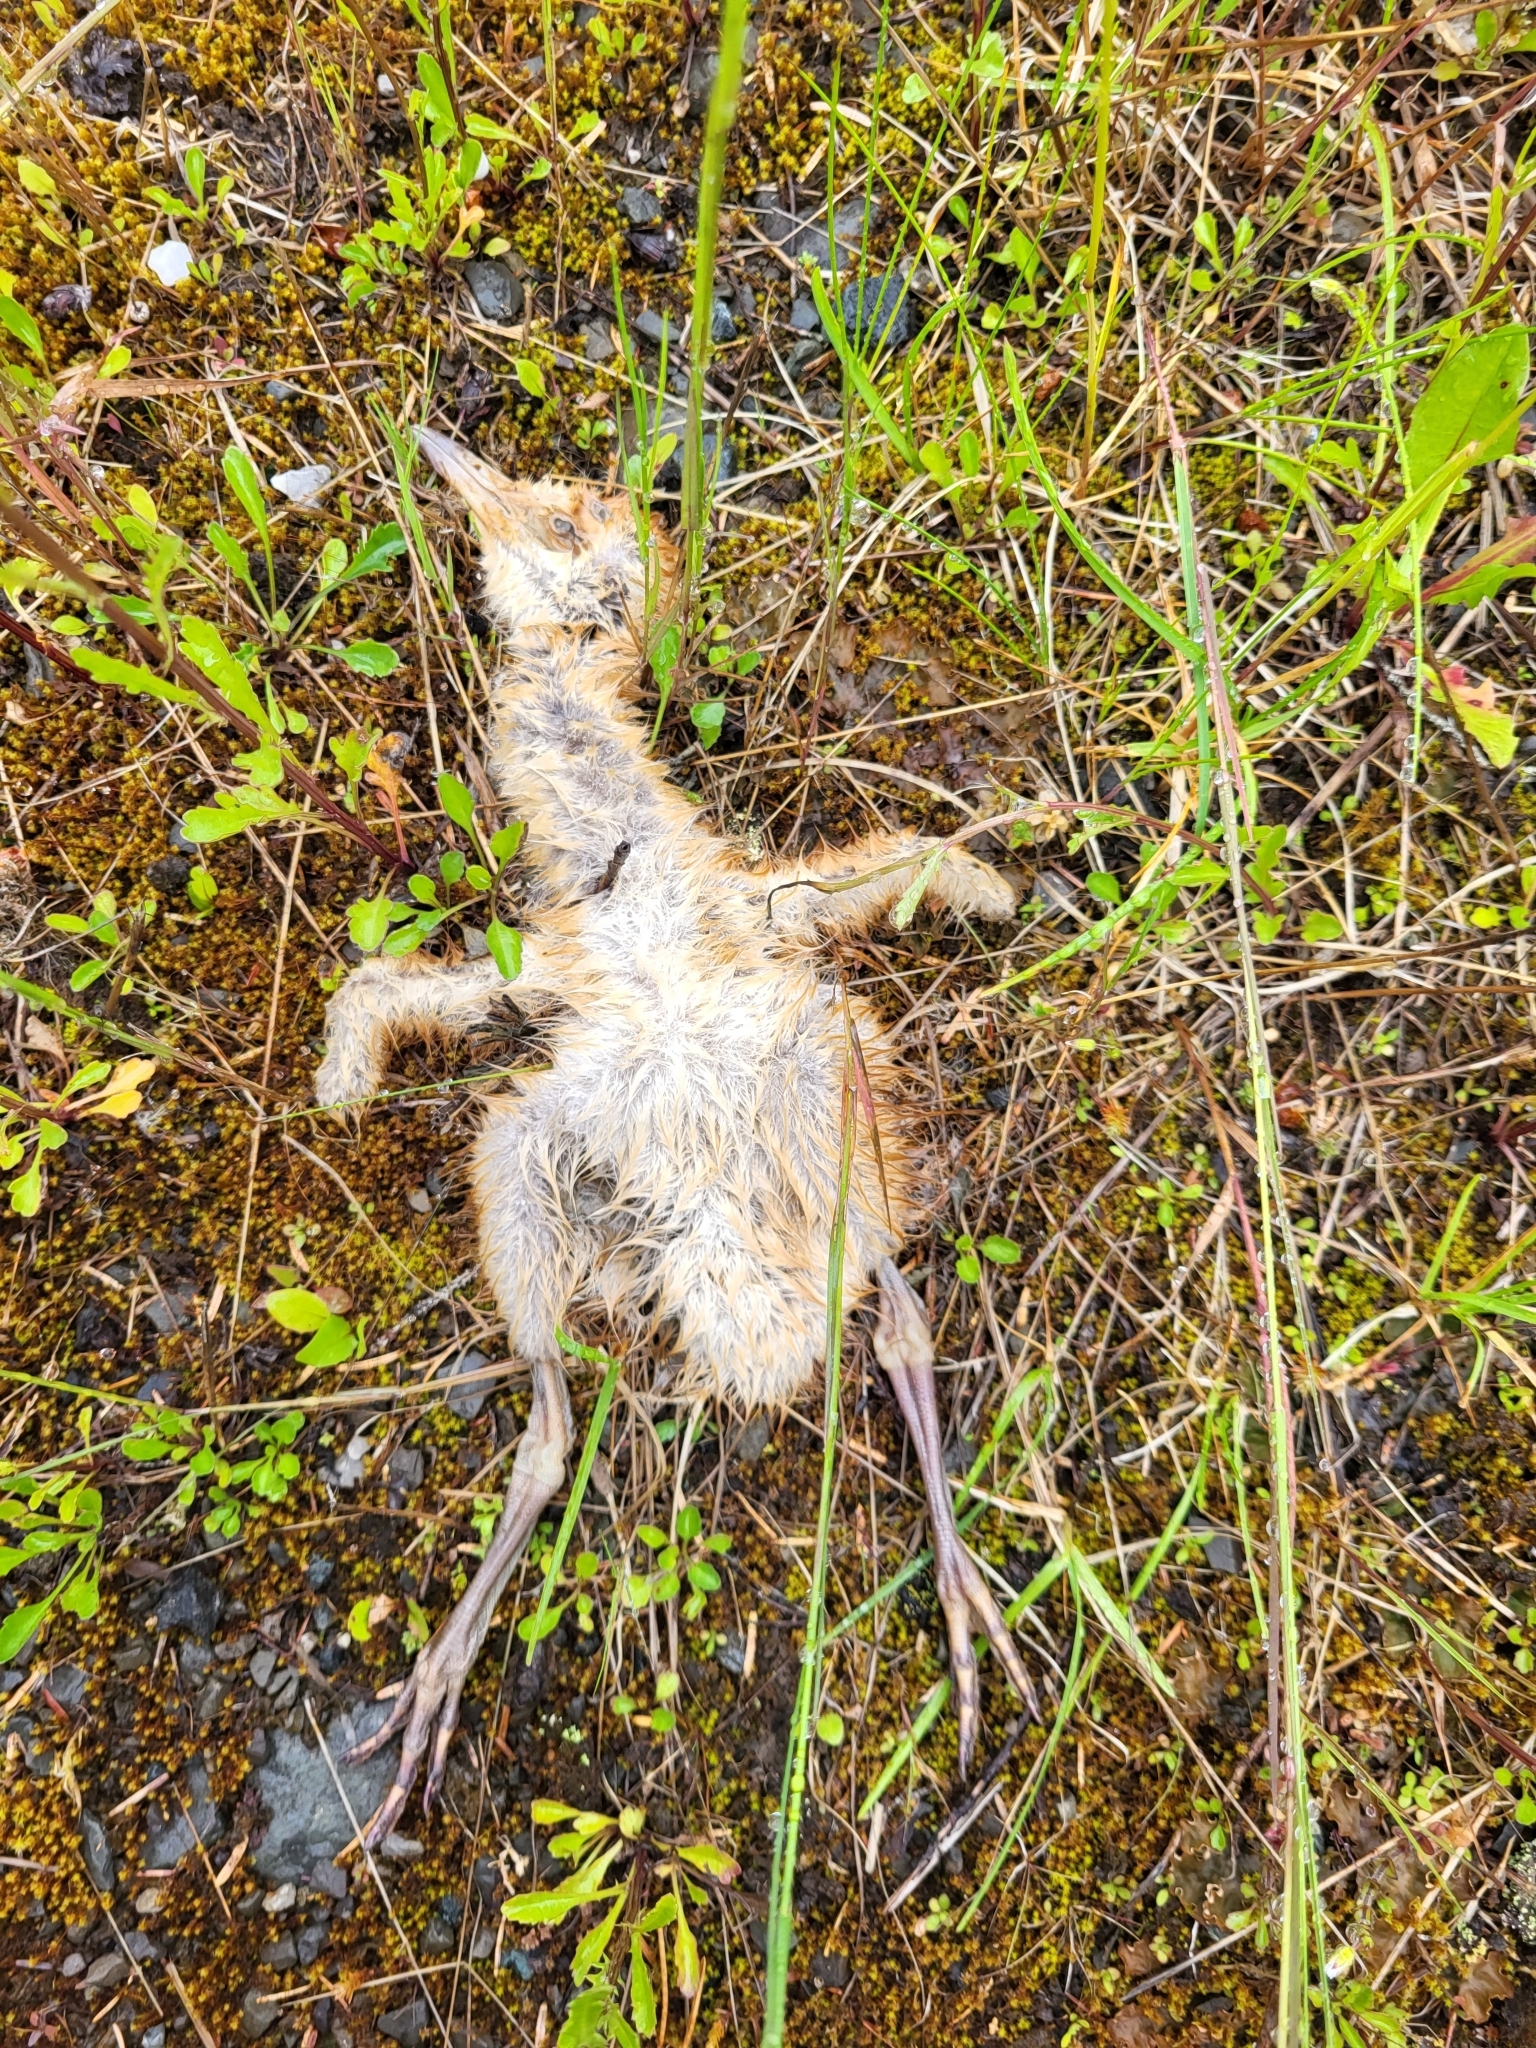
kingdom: Animalia
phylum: Chordata
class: Aves
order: Gruiformes
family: Gruidae
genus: Grus
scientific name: Grus canadensis
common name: Sandhill crane
